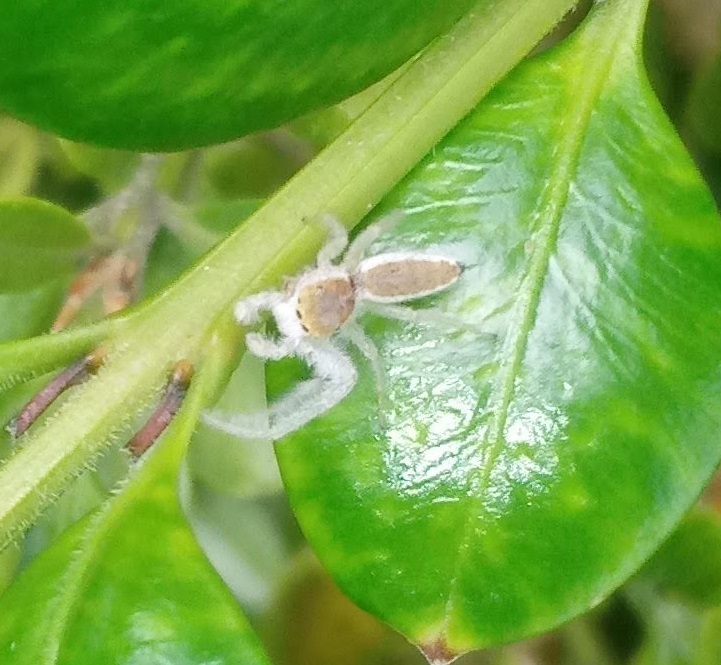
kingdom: Animalia
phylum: Arthropoda
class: Arachnida
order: Araneae
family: Salticidae
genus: Hentzia
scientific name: Hentzia mitrata
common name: White-jawed jumping spider
